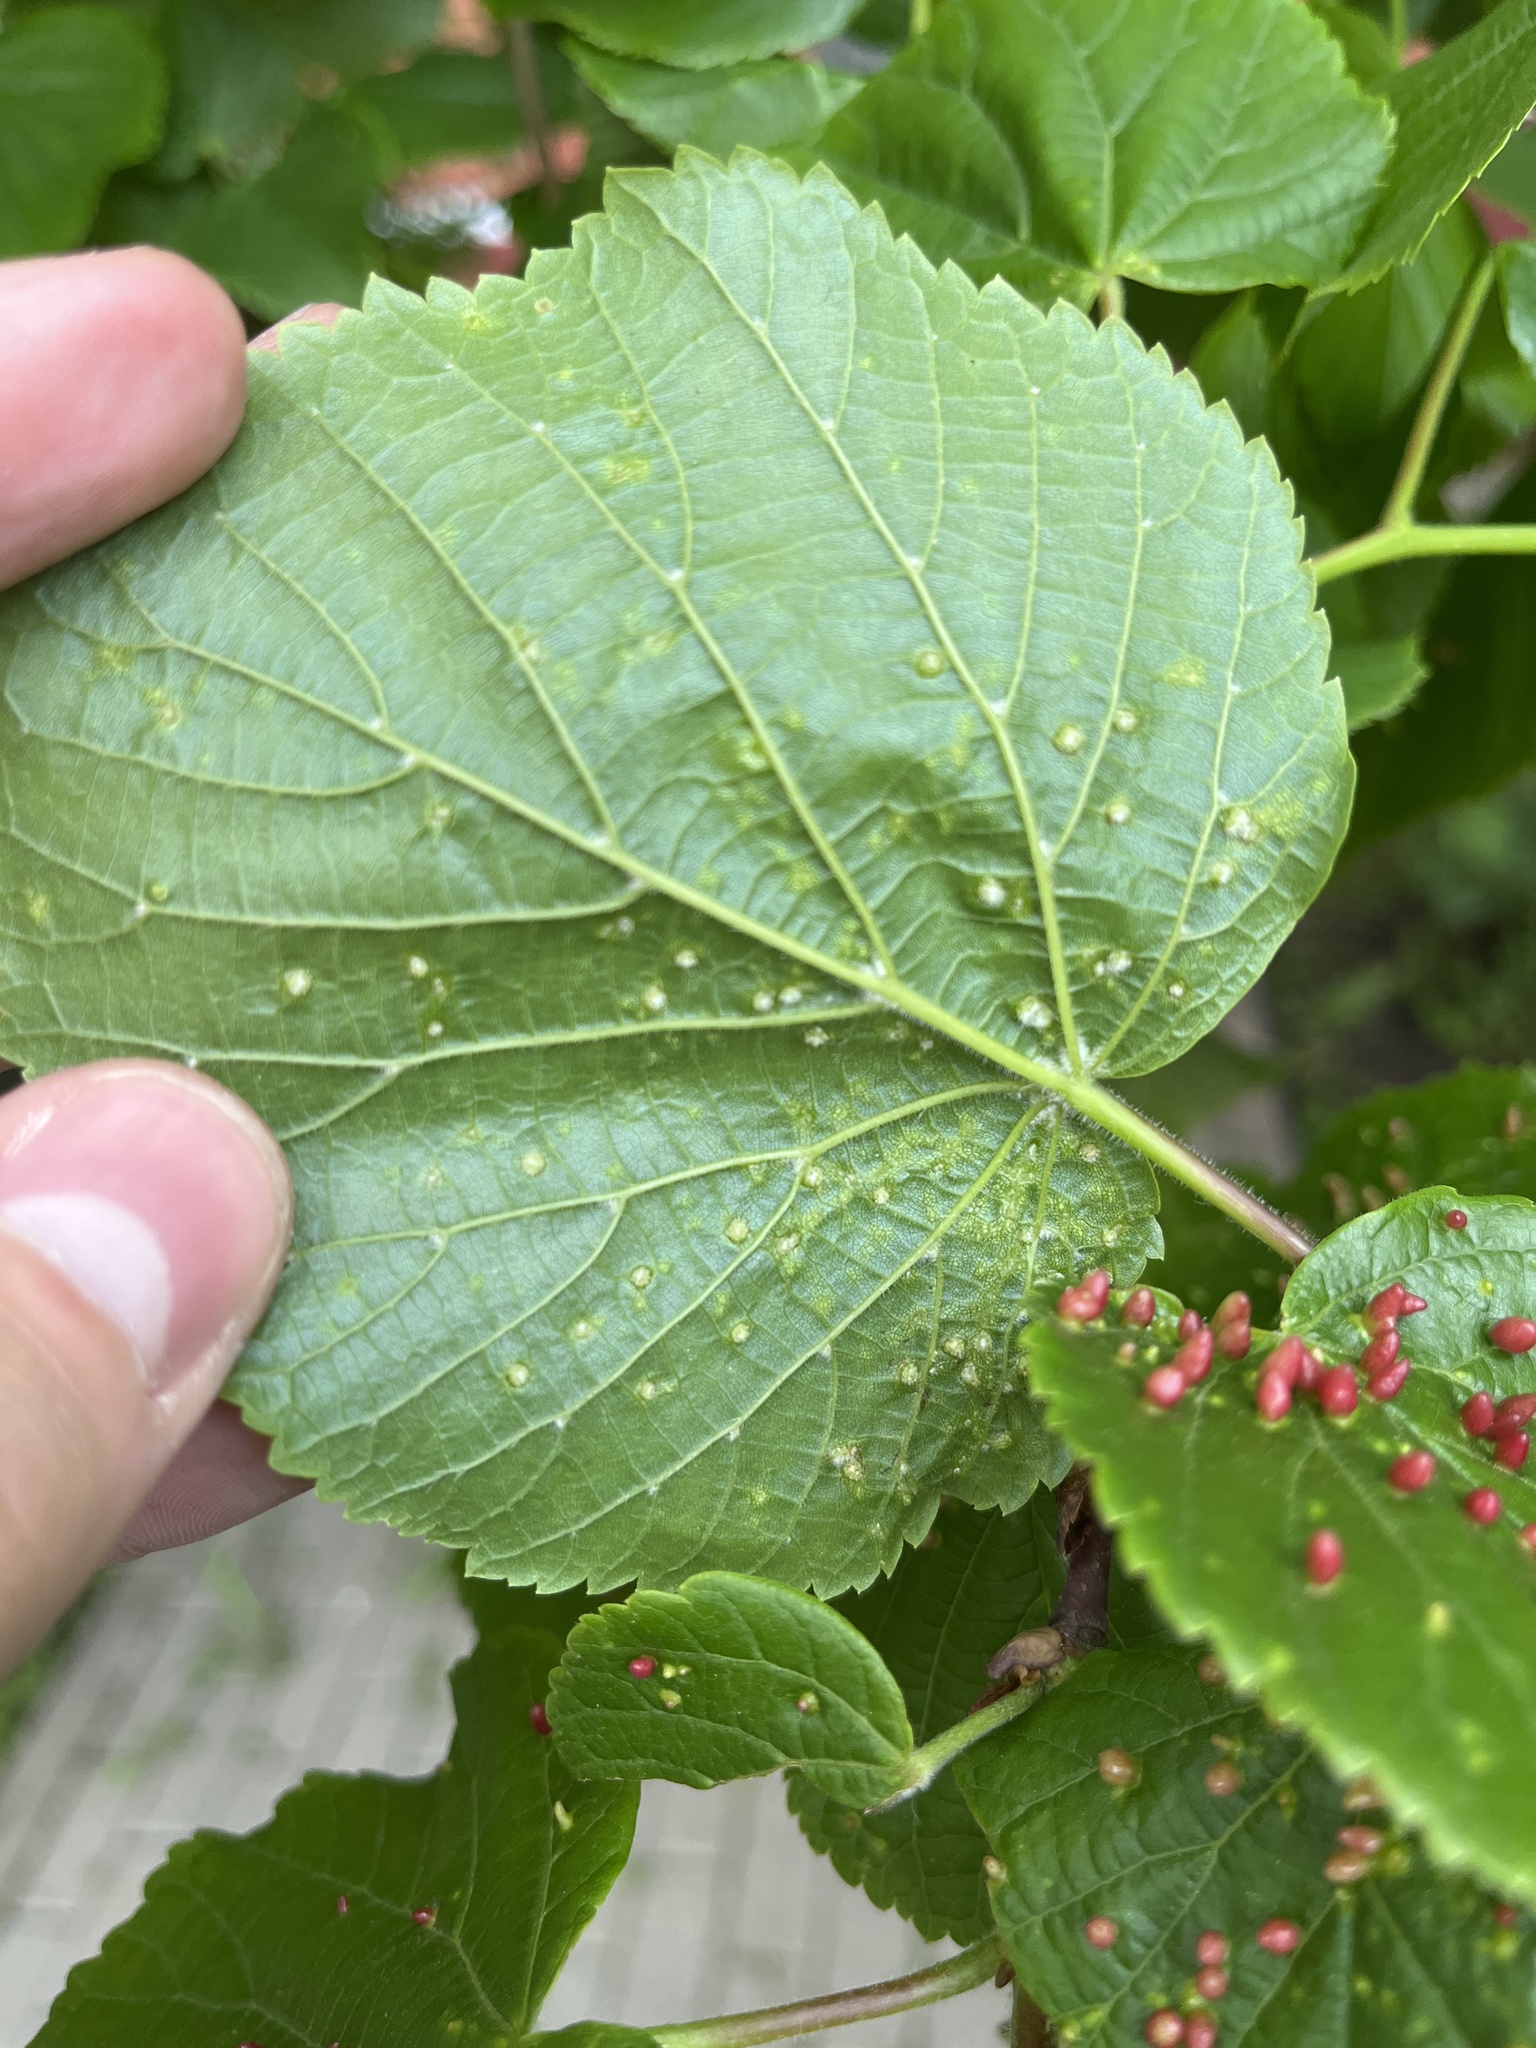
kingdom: Animalia
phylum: Arthropoda
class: Arachnida
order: Trombidiformes
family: Eriophyidae
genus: Eriophyes
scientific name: Eriophyes tiliae
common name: Red nail gall mite
